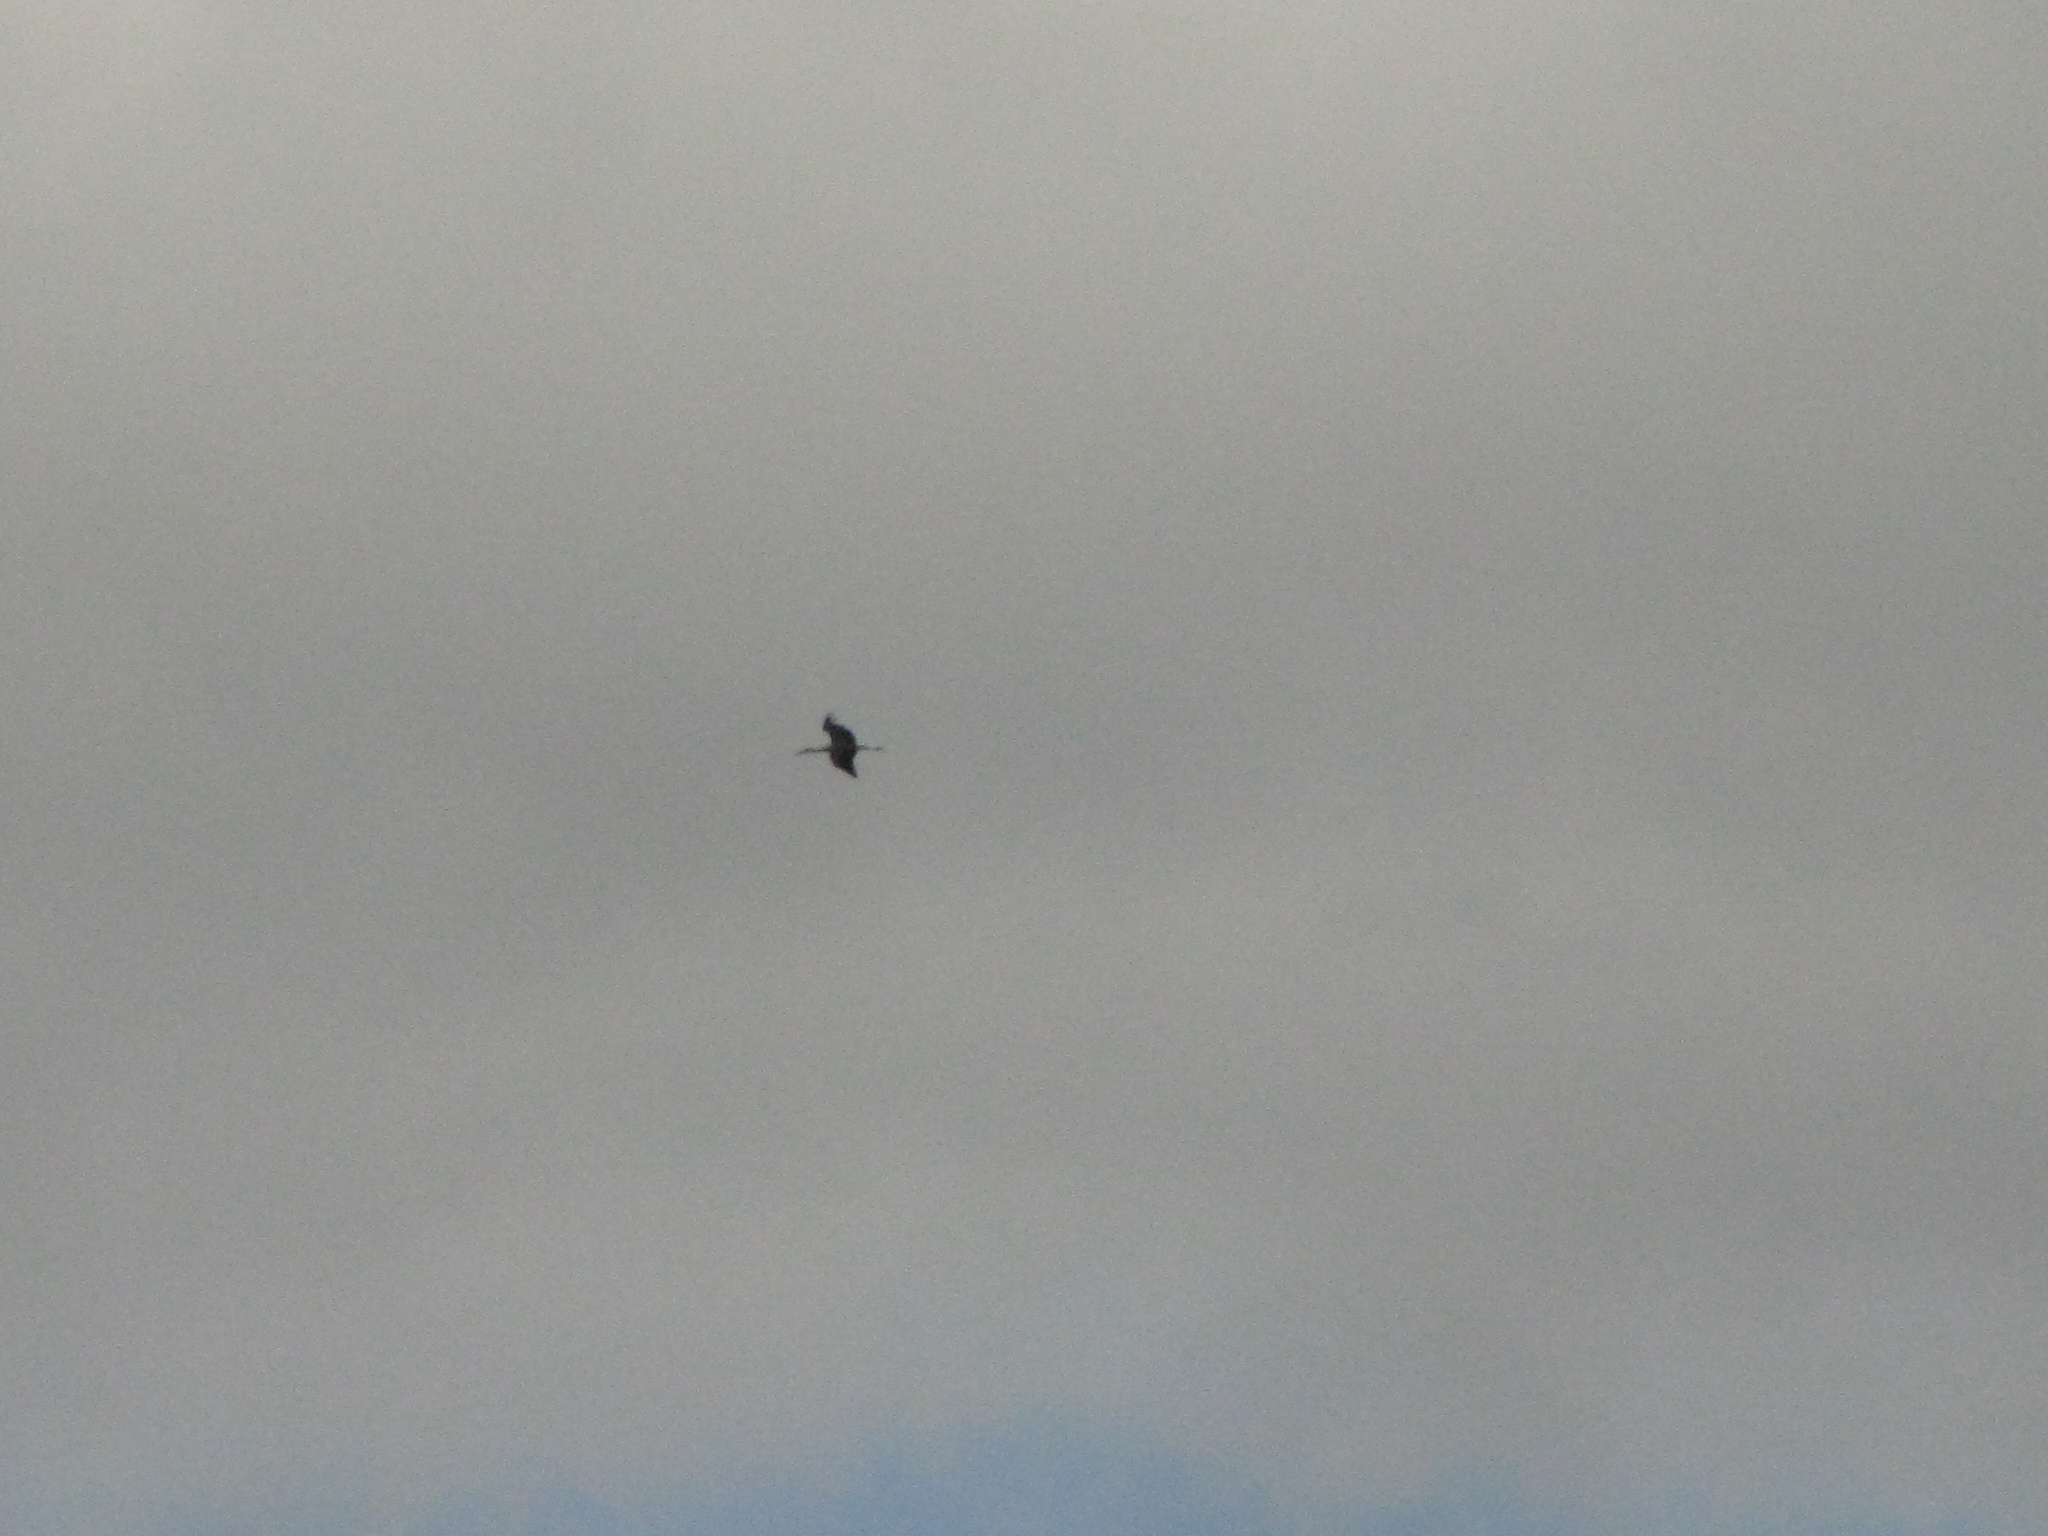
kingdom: Animalia
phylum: Chordata
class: Aves
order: Ciconiiformes
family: Ciconiidae
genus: Ciconia
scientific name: Ciconia ciconia
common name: White stork
